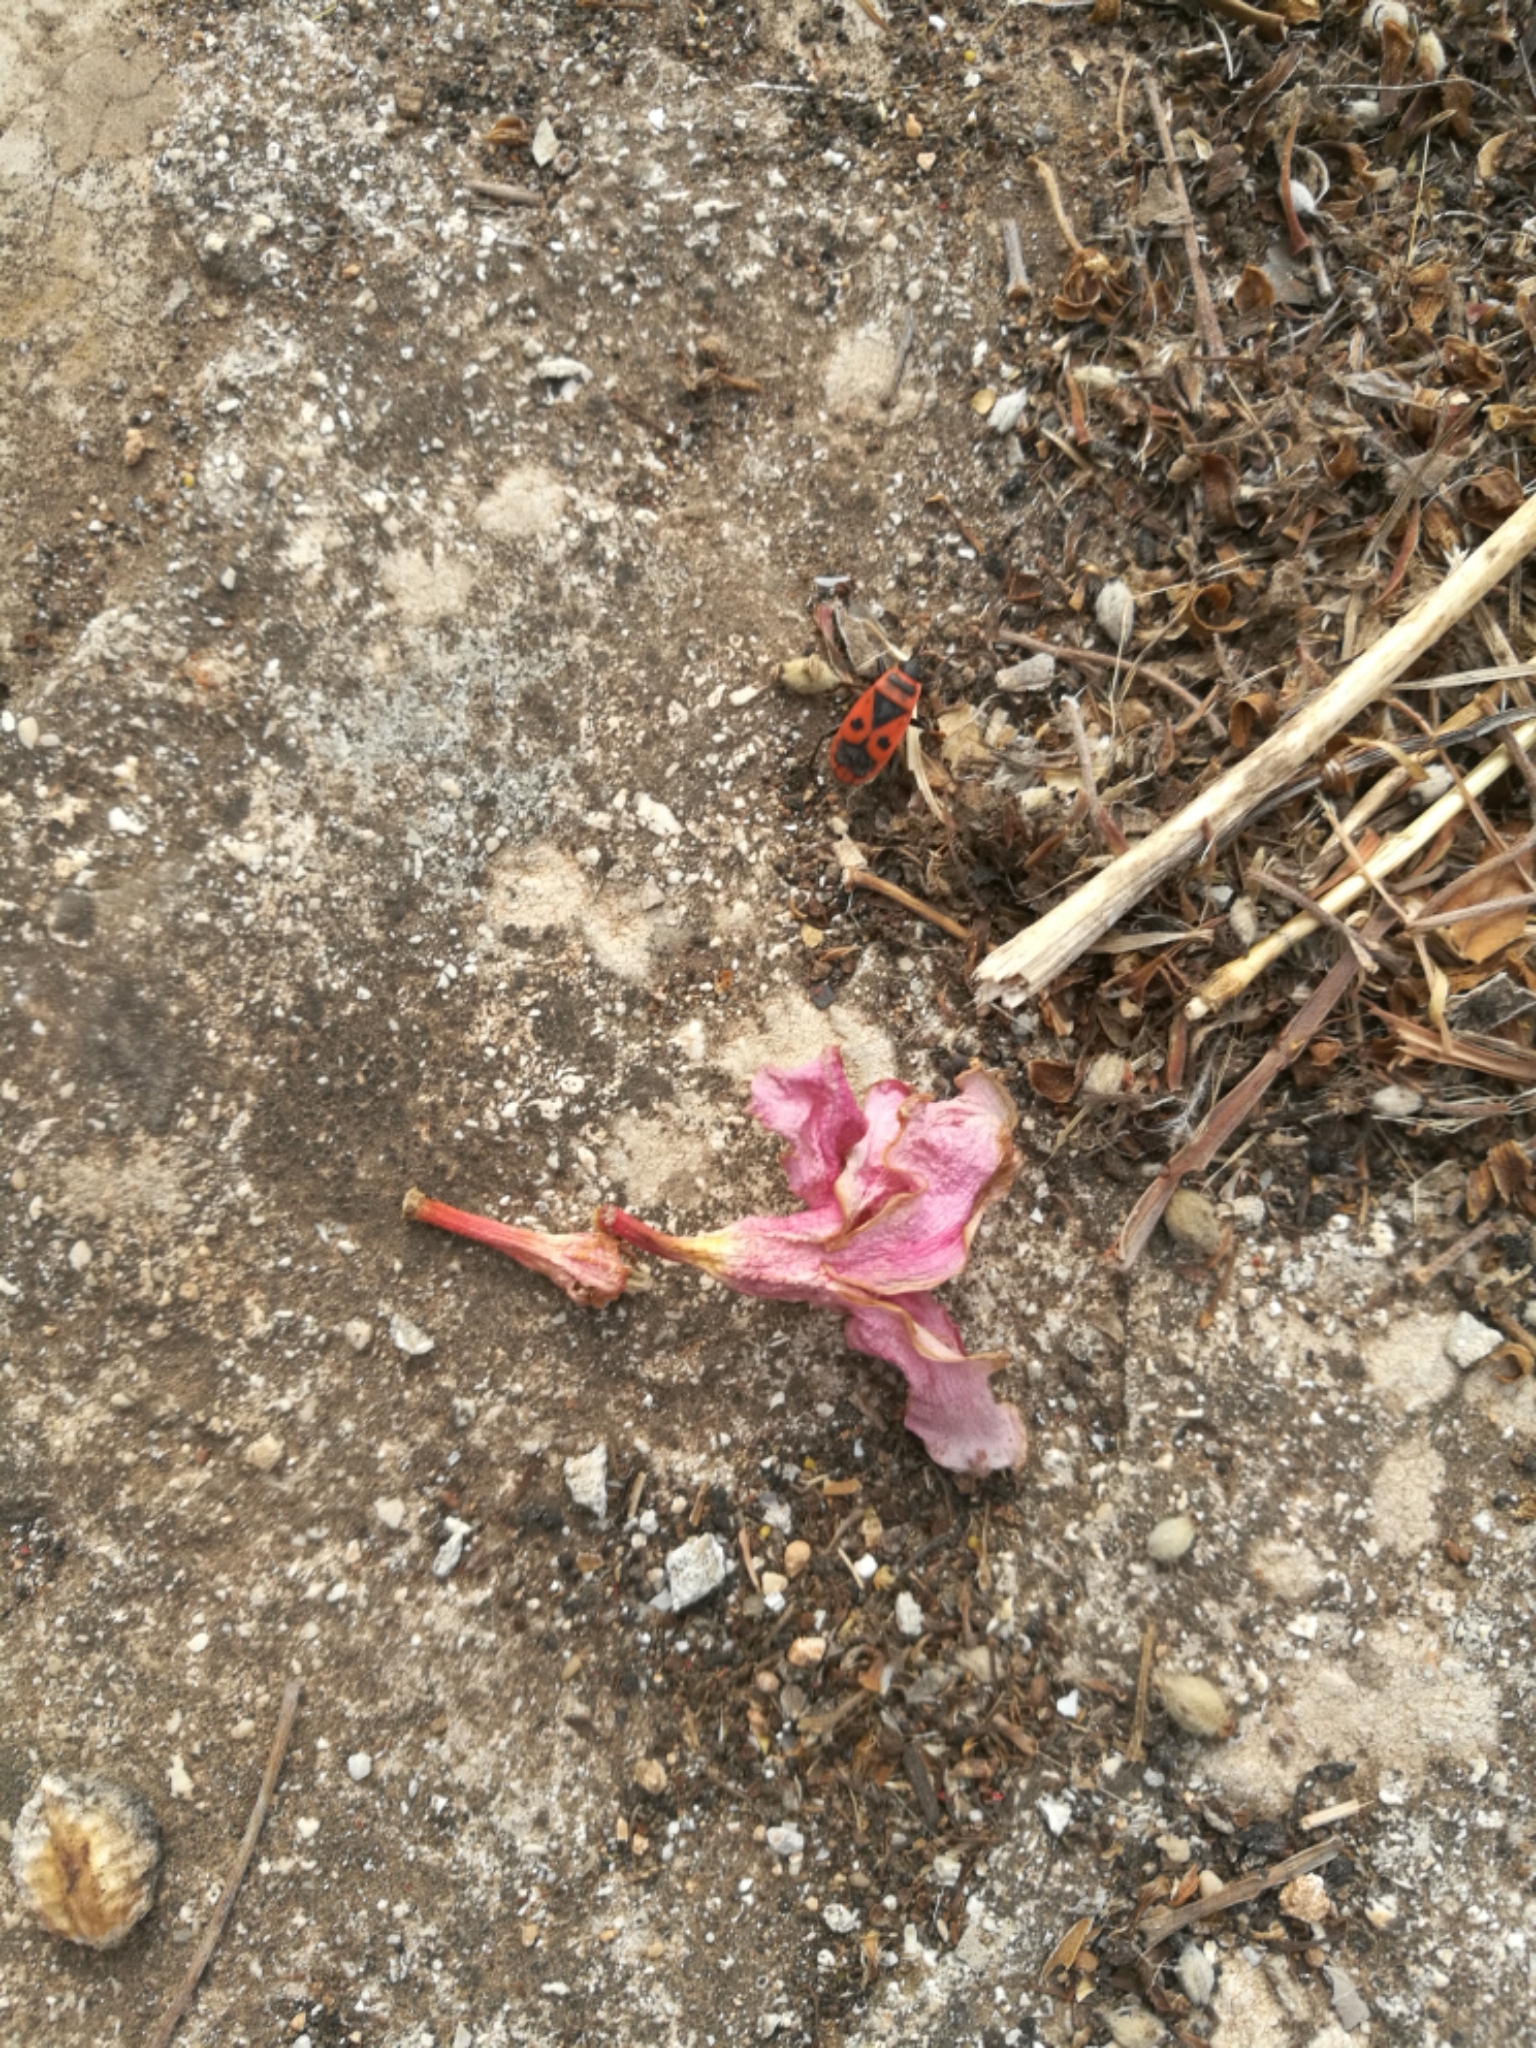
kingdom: Animalia
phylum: Arthropoda
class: Insecta
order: Hemiptera
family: Pyrrhocoridae
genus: Pyrrhocoris
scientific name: Pyrrhocoris apterus
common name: Firebug
